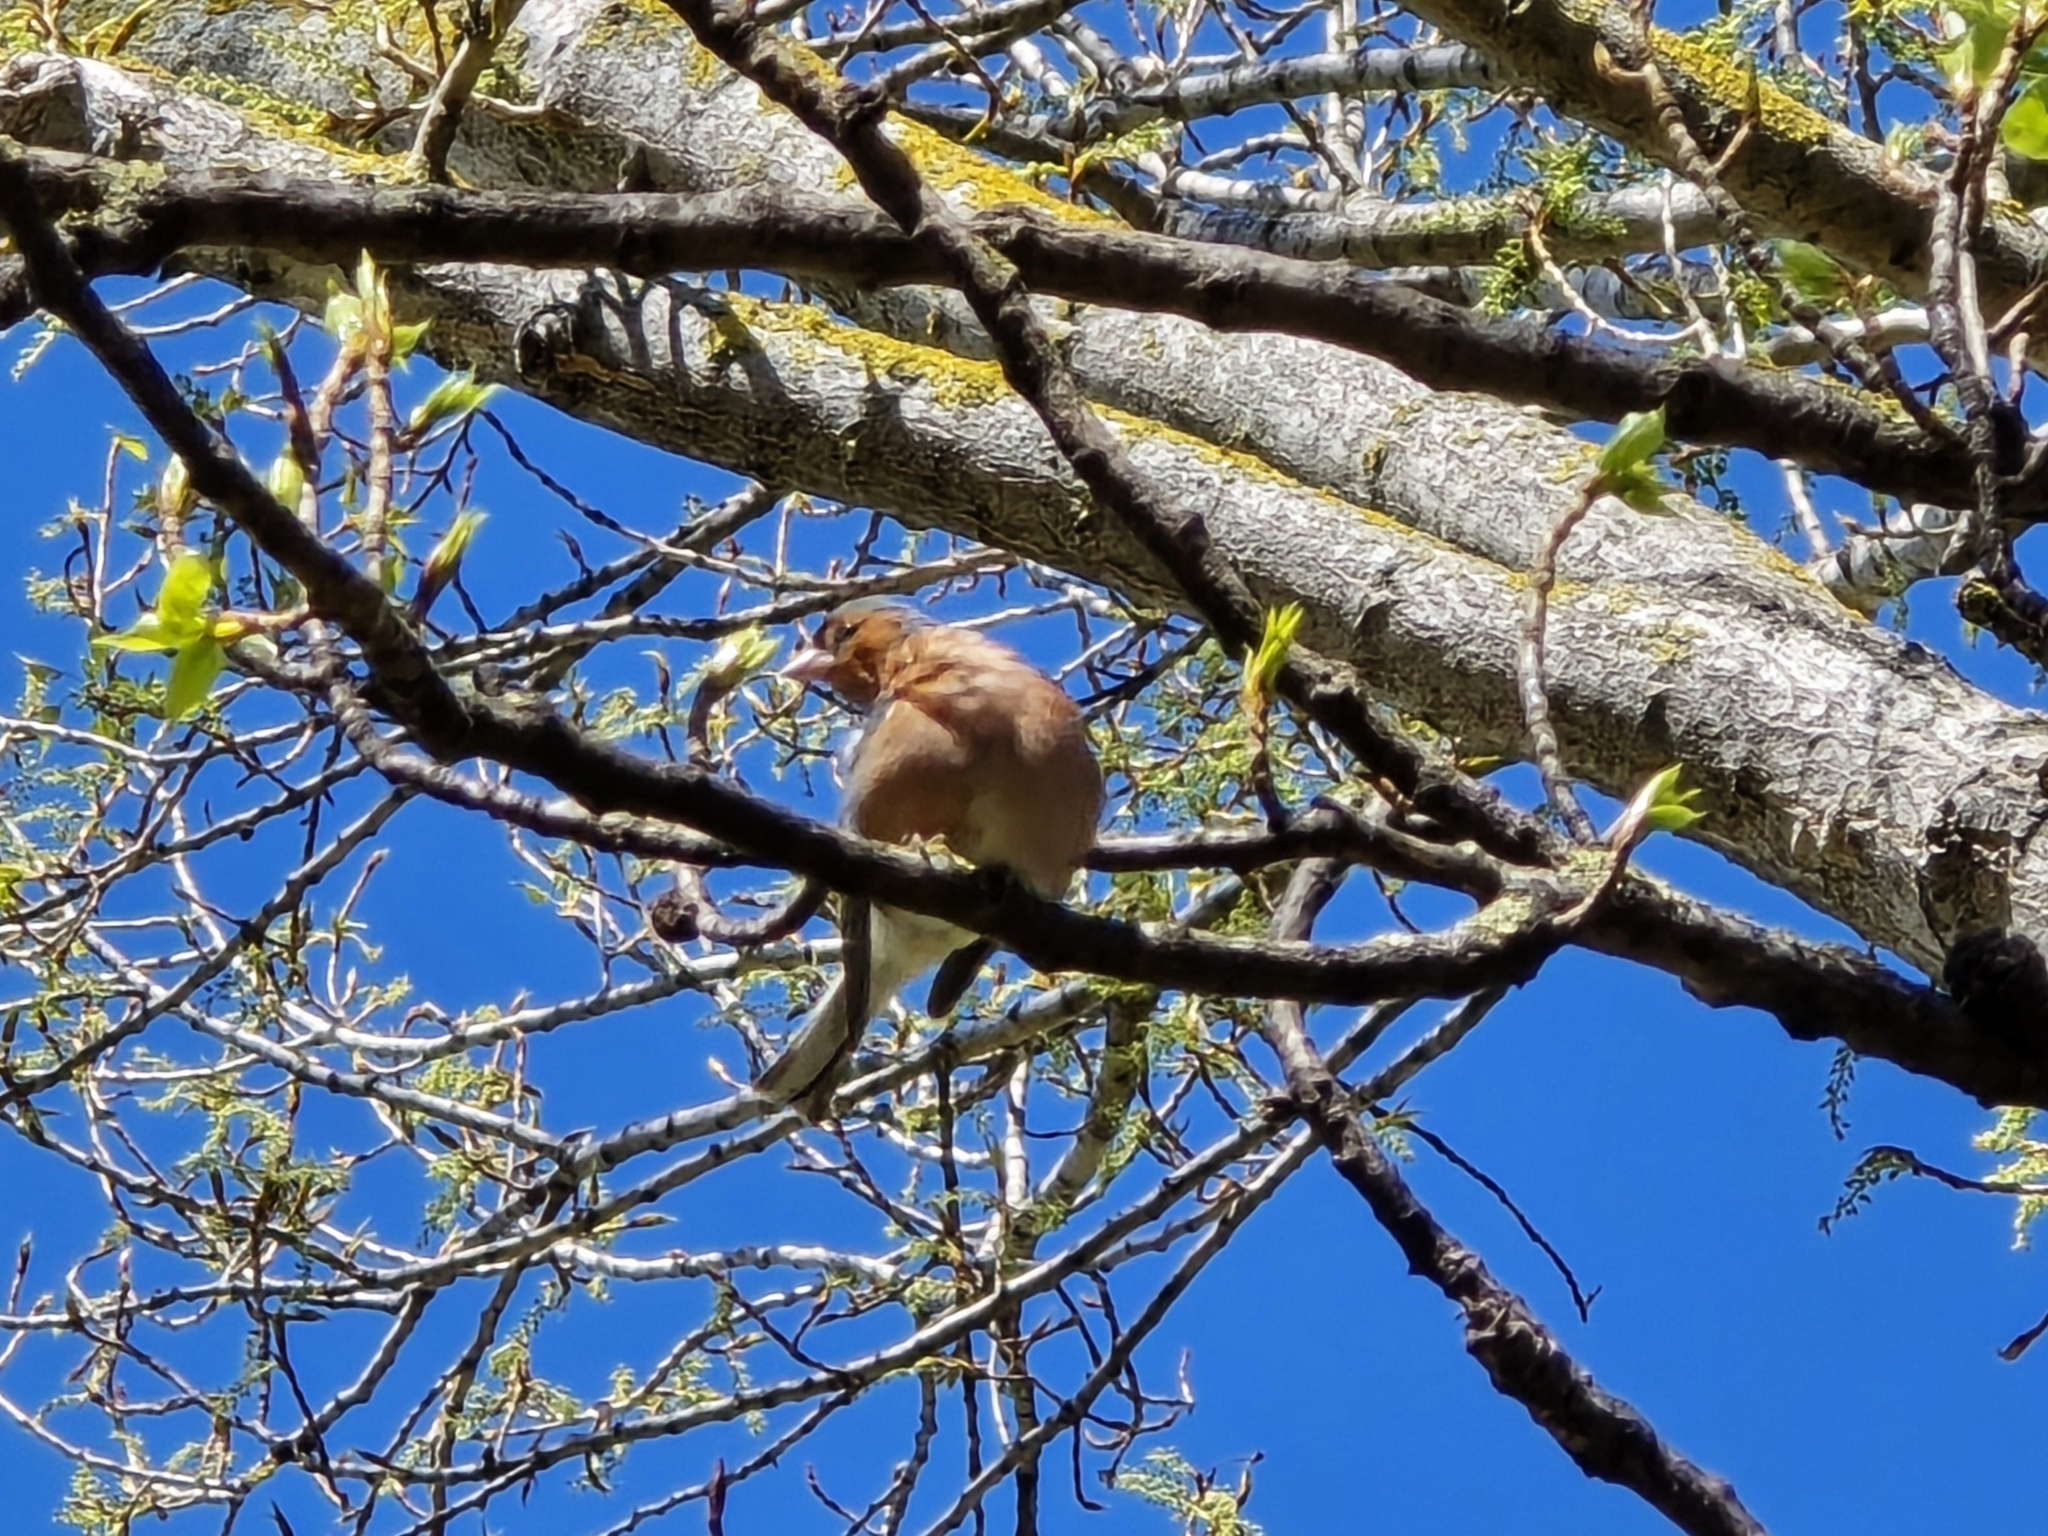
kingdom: Animalia
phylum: Chordata
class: Aves
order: Passeriformes
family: Fringillidae
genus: Fringilla
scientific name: Fringilla coelebs
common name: Common chaffinch
